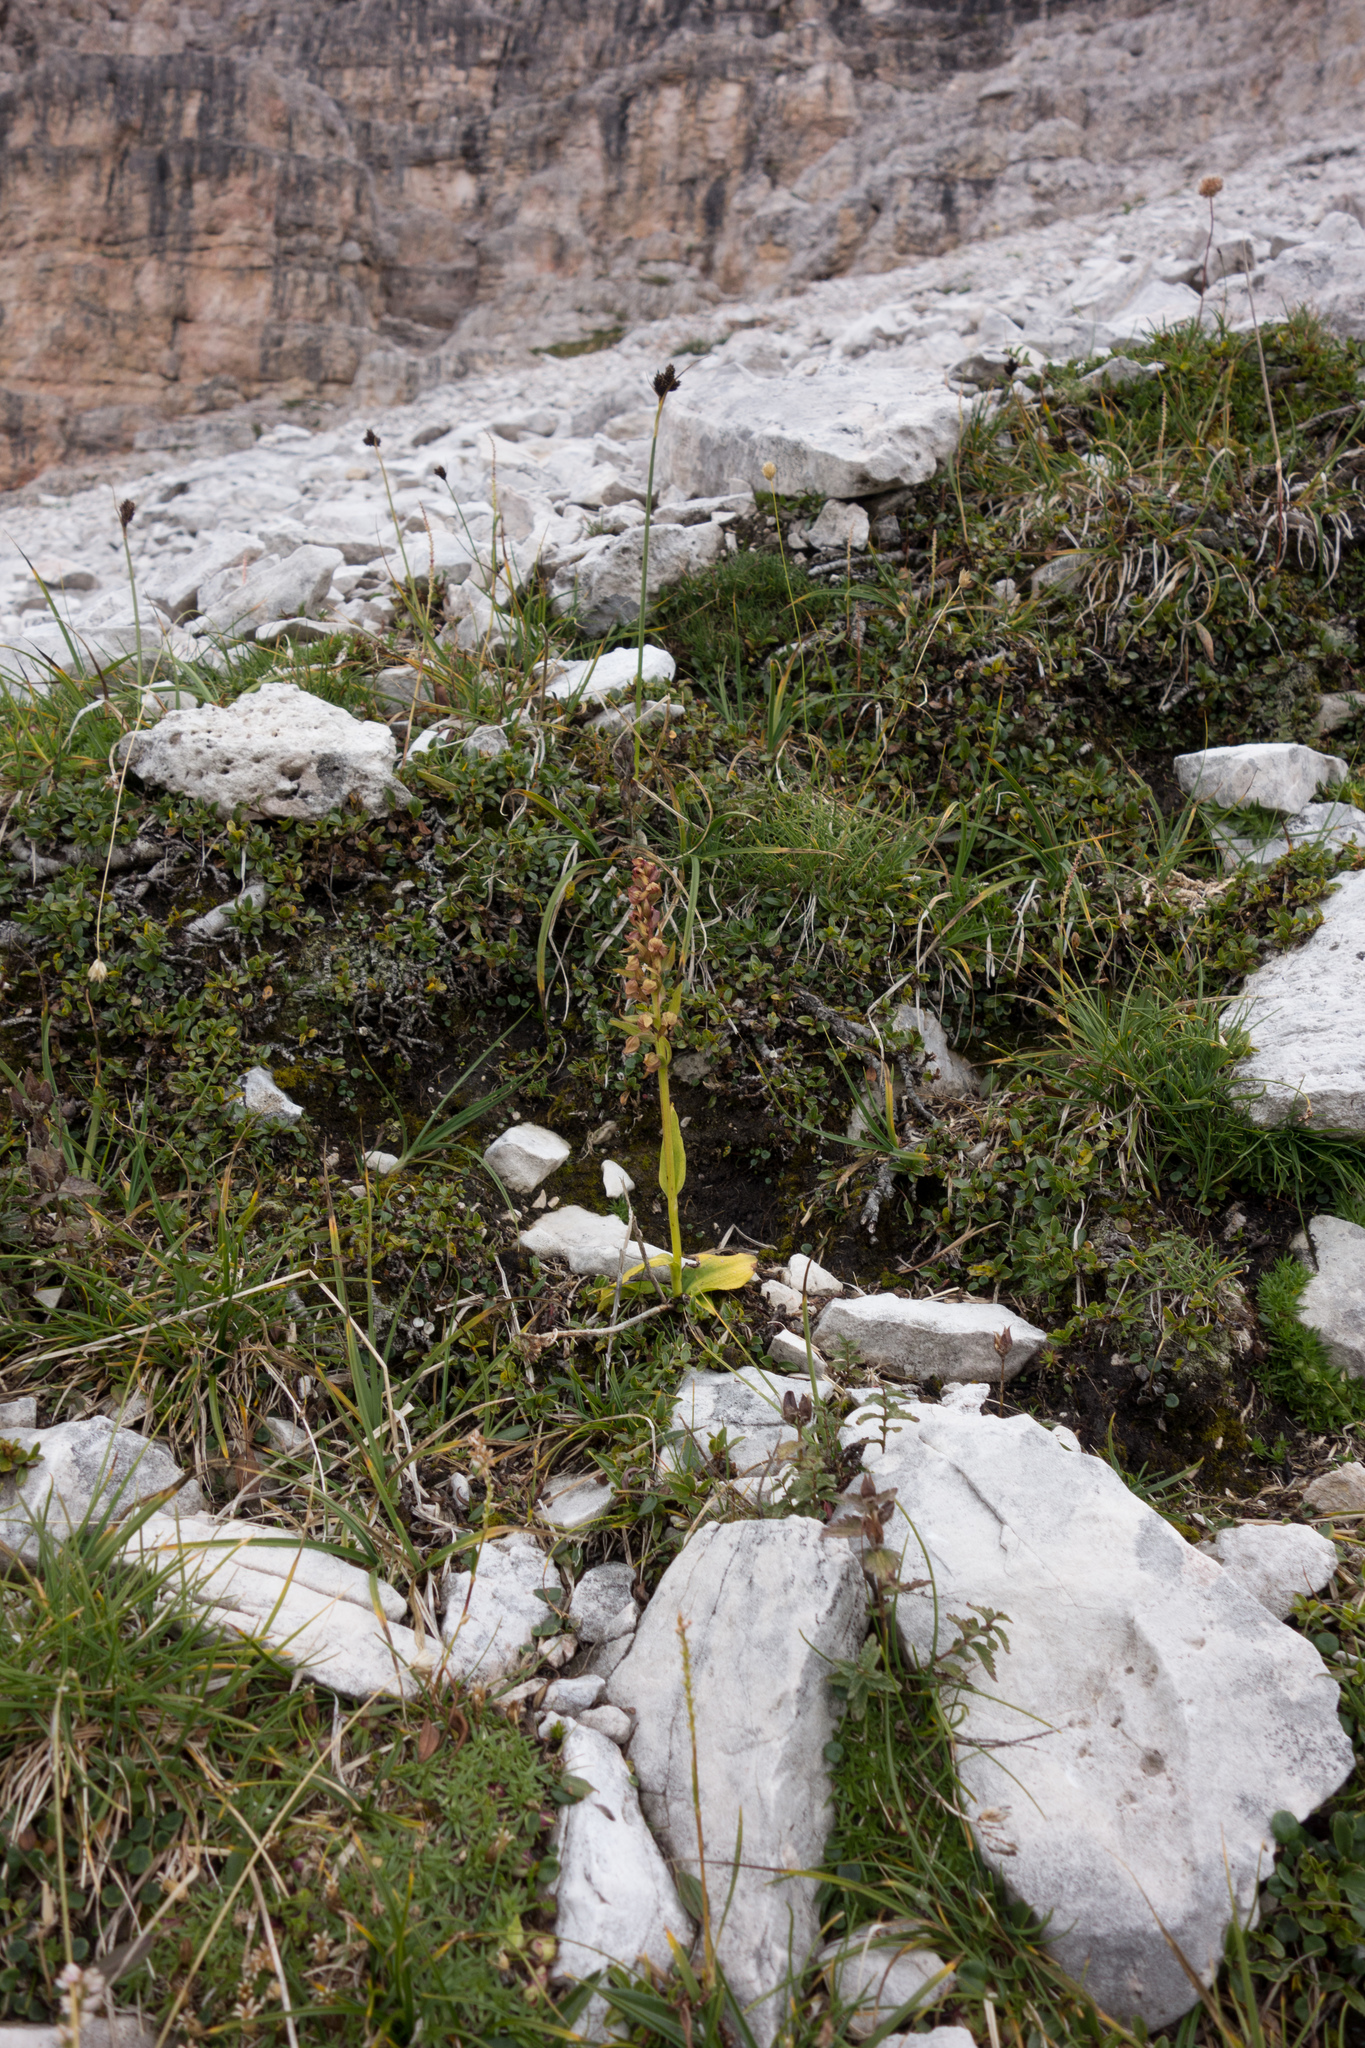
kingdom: Plantae
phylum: Tracheophyta
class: Liliopsida
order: Asparagales
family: Orchidaceae
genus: Dactylorhiza
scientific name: Dactylorhiza viridis
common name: Longbract frog orchid
